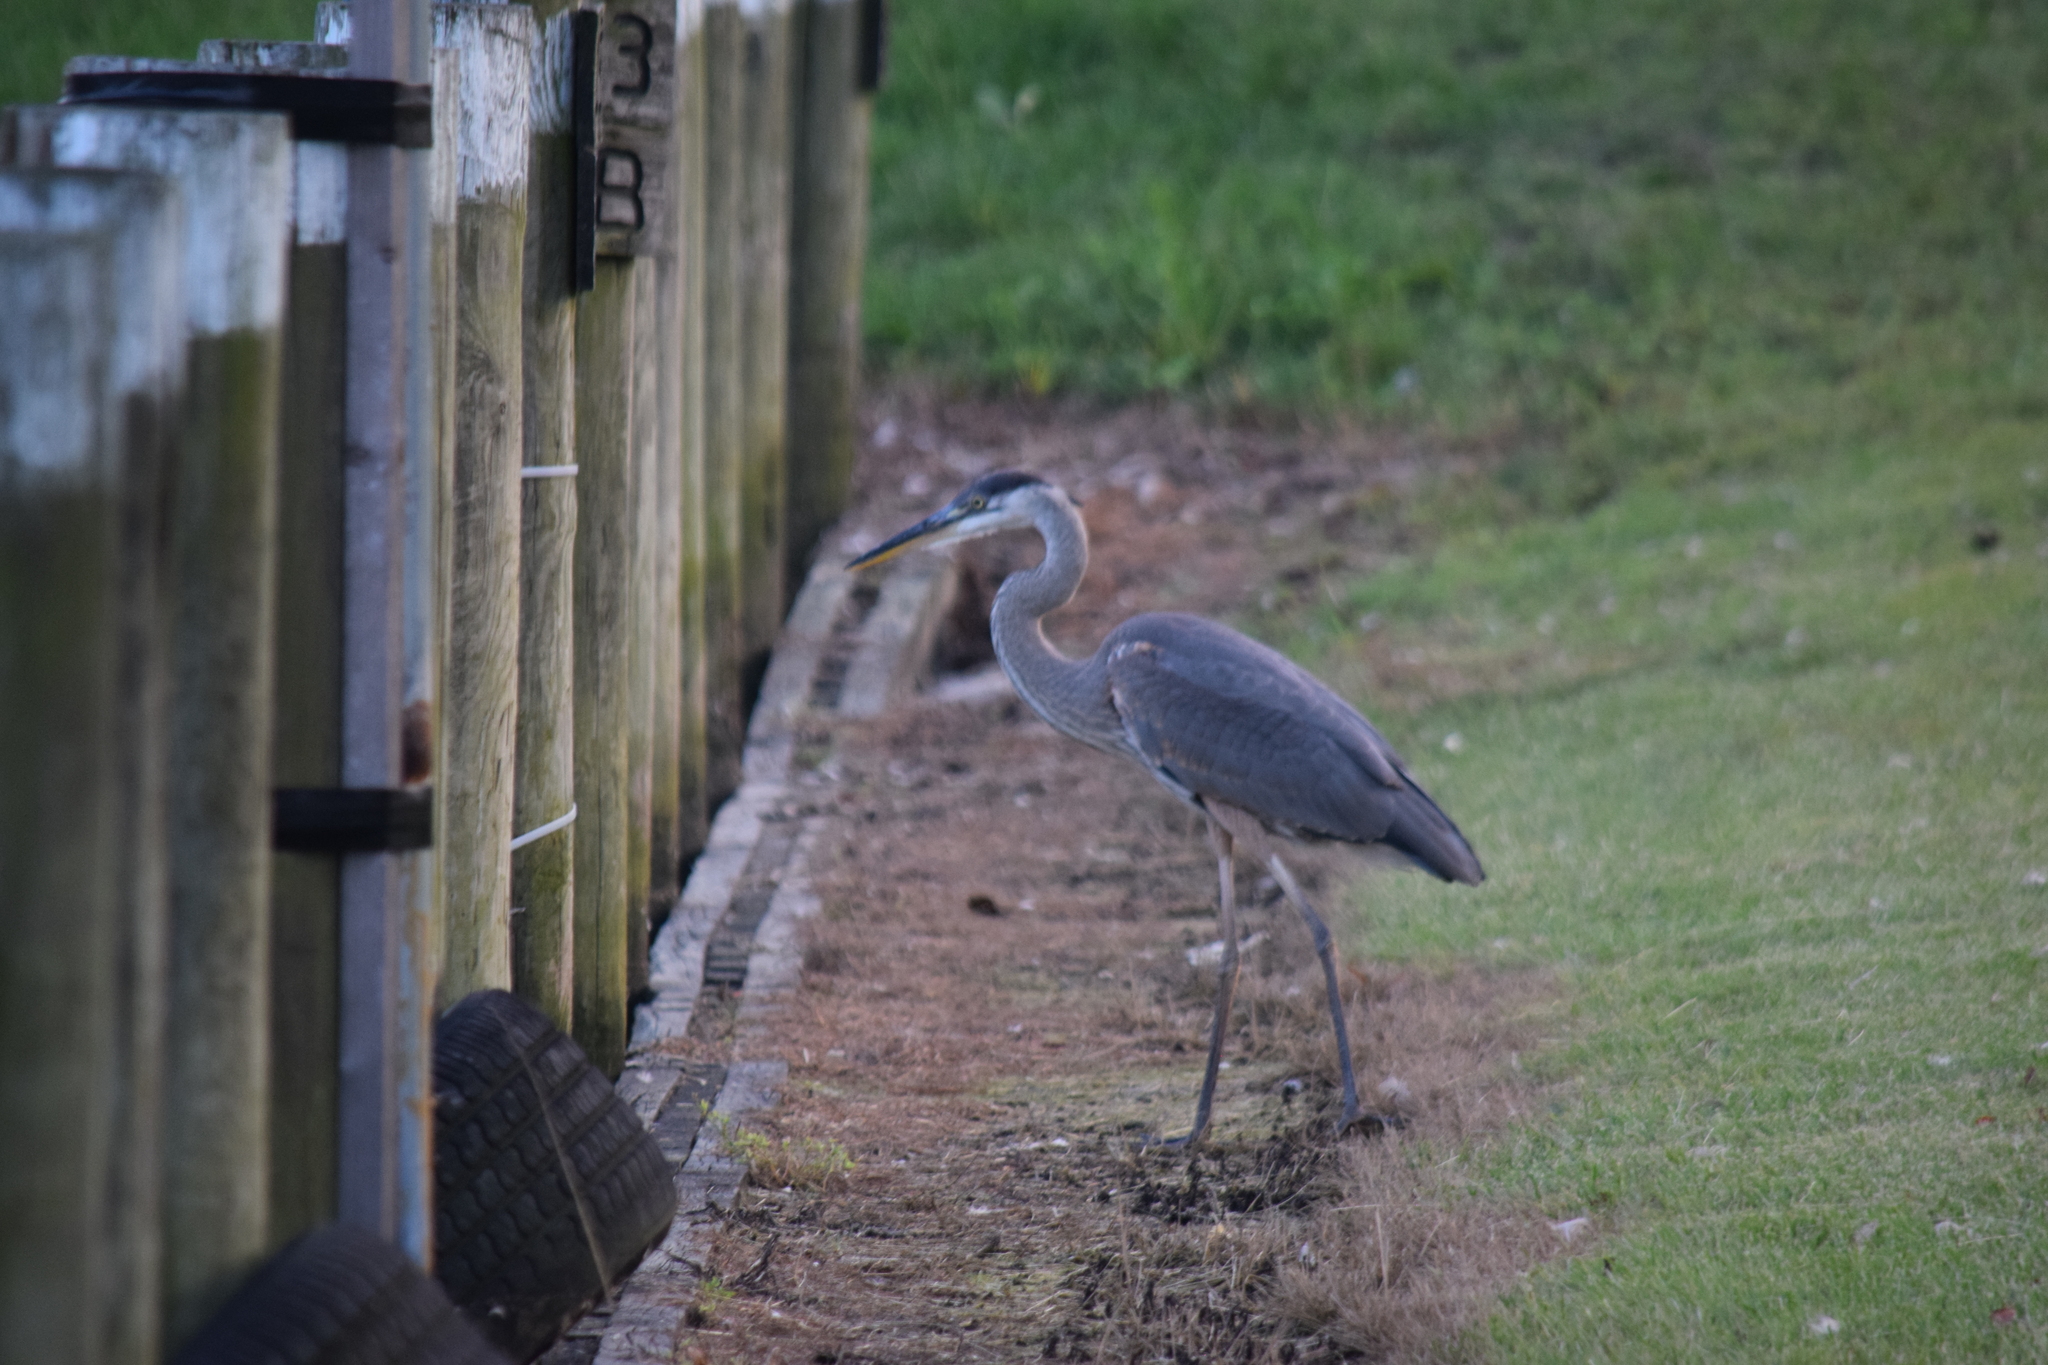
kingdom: Animalia
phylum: Chordata
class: Aves
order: Pelecaniformes
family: Ardeidae
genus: Ardea
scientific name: Ardea herodias
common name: Great blue heron
